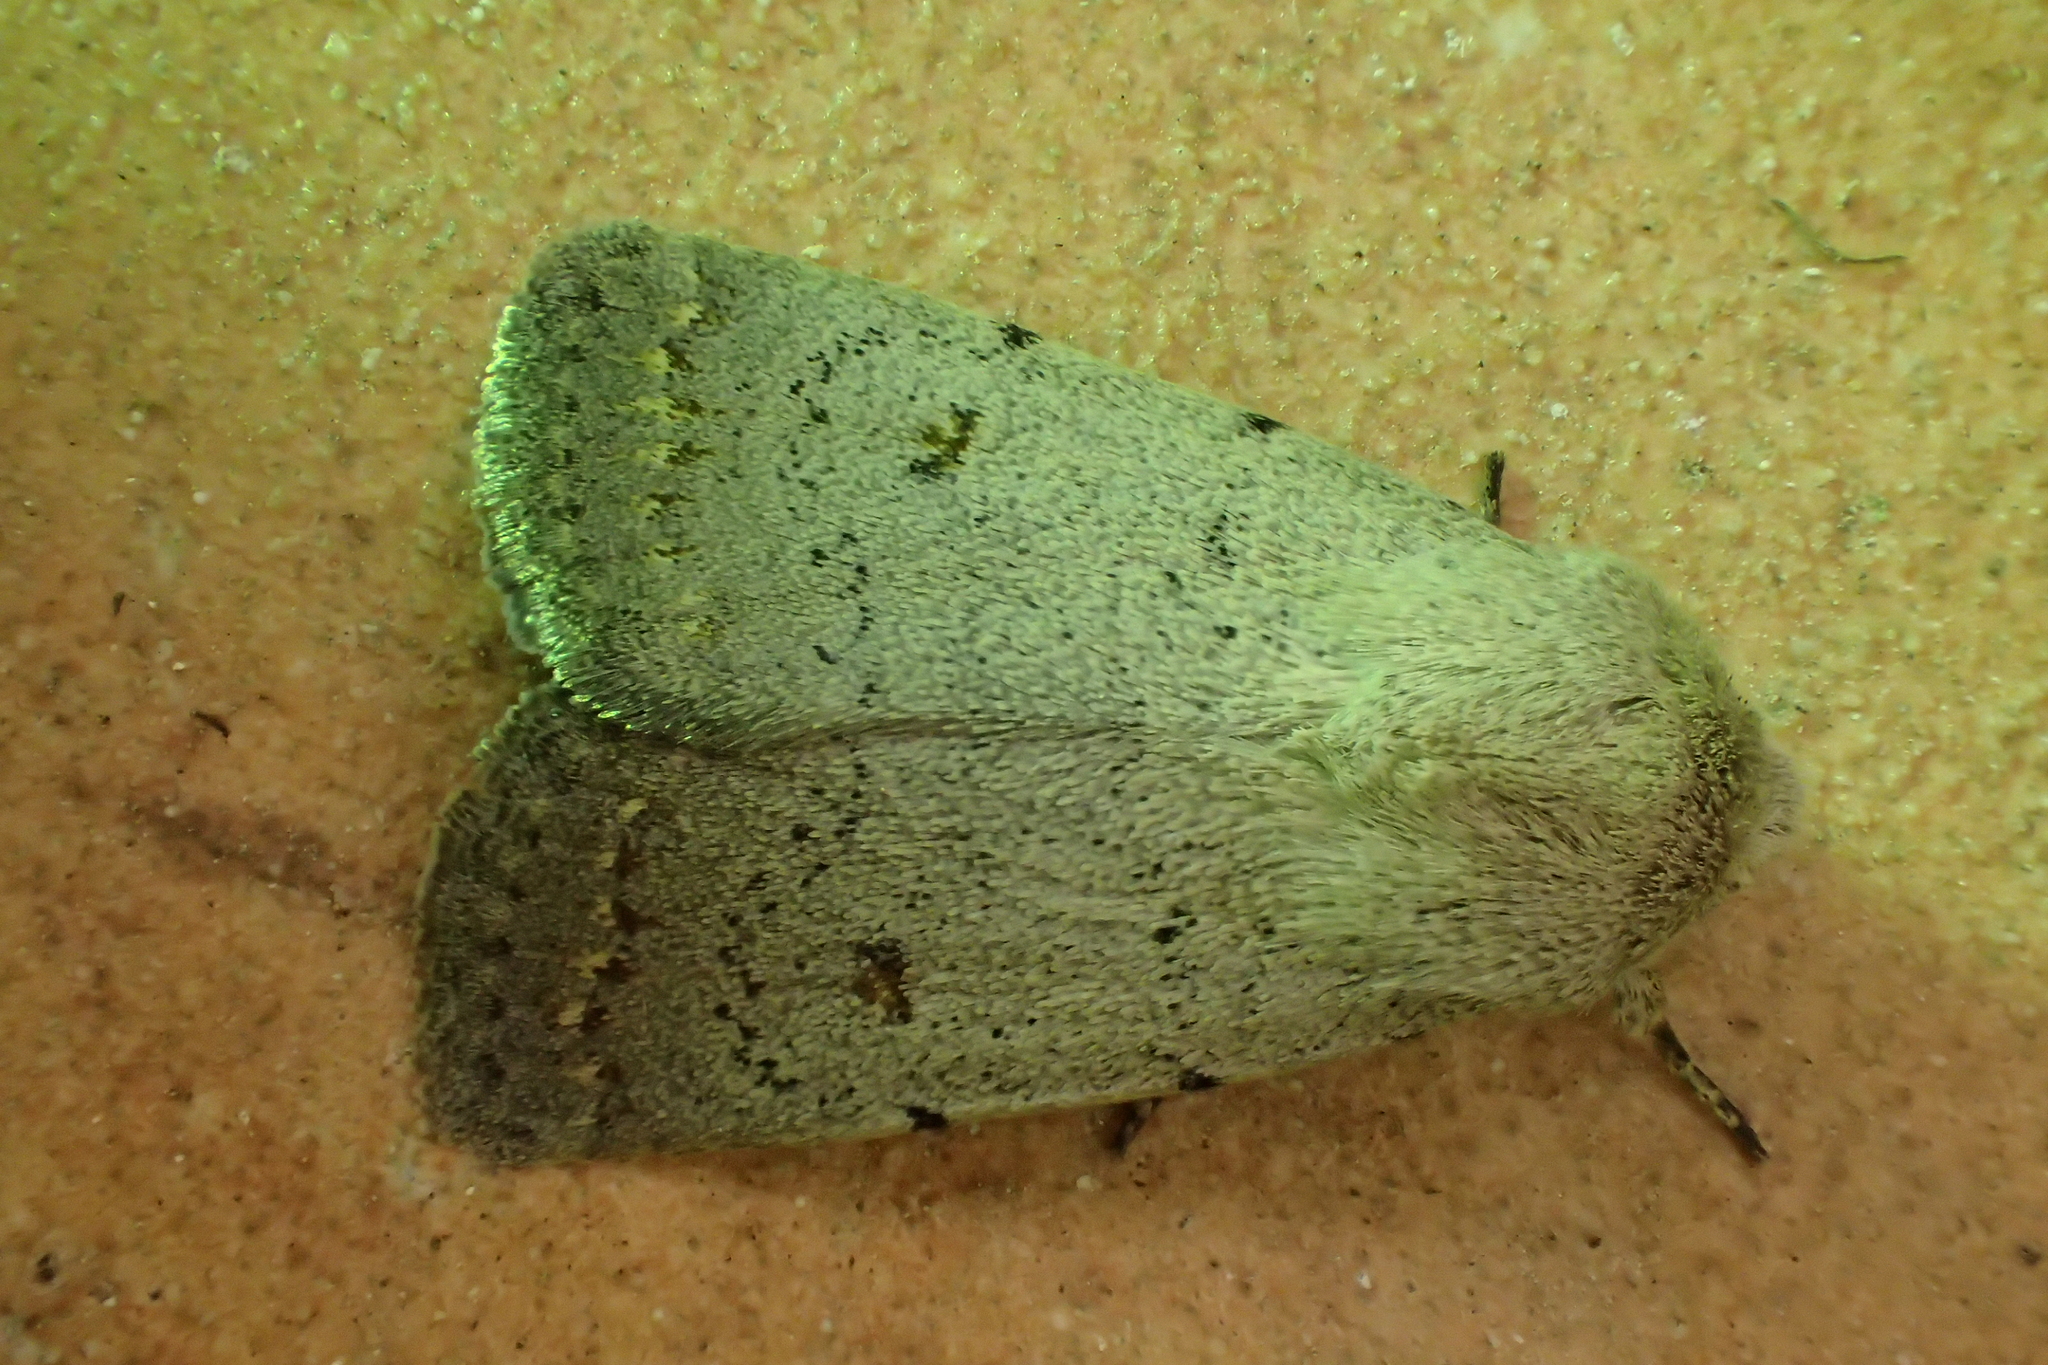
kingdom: Animalia
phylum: Arthropoda
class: Insecta
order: Lepidoptera
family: Noctuidae
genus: Caradrina
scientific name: Caradrina aspersa
